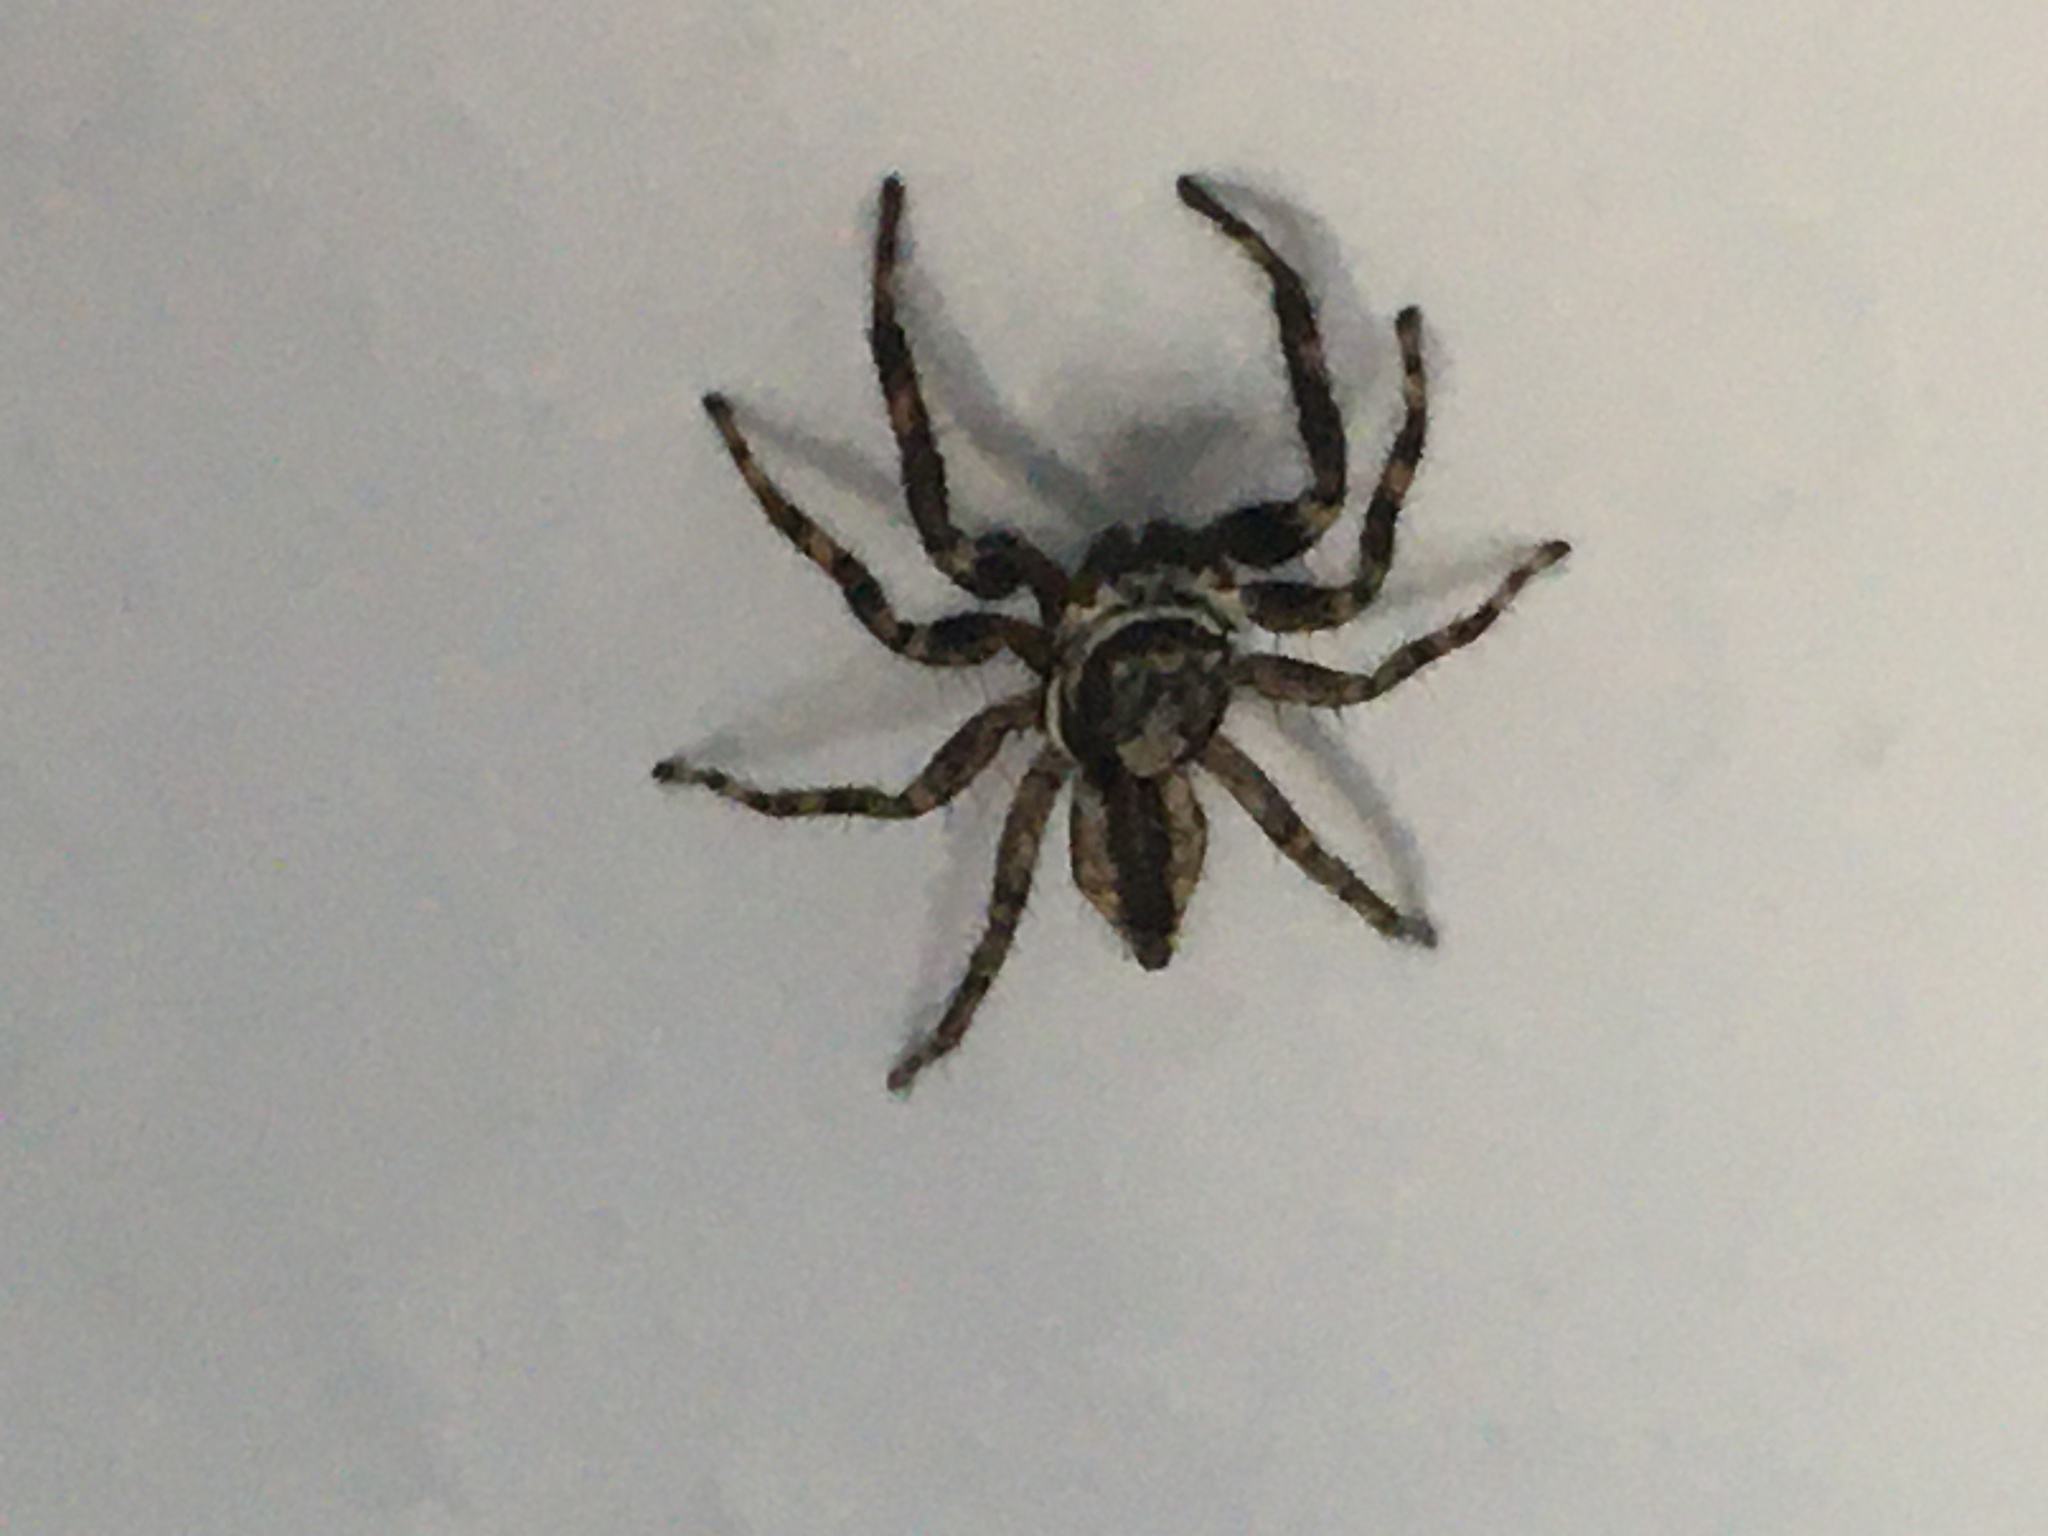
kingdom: Animalia
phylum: Arthropoda
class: Arachnida
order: Araneae
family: Salticidae
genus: Menemerus
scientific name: Menemerus bivittatus
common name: Gray wall jumper
